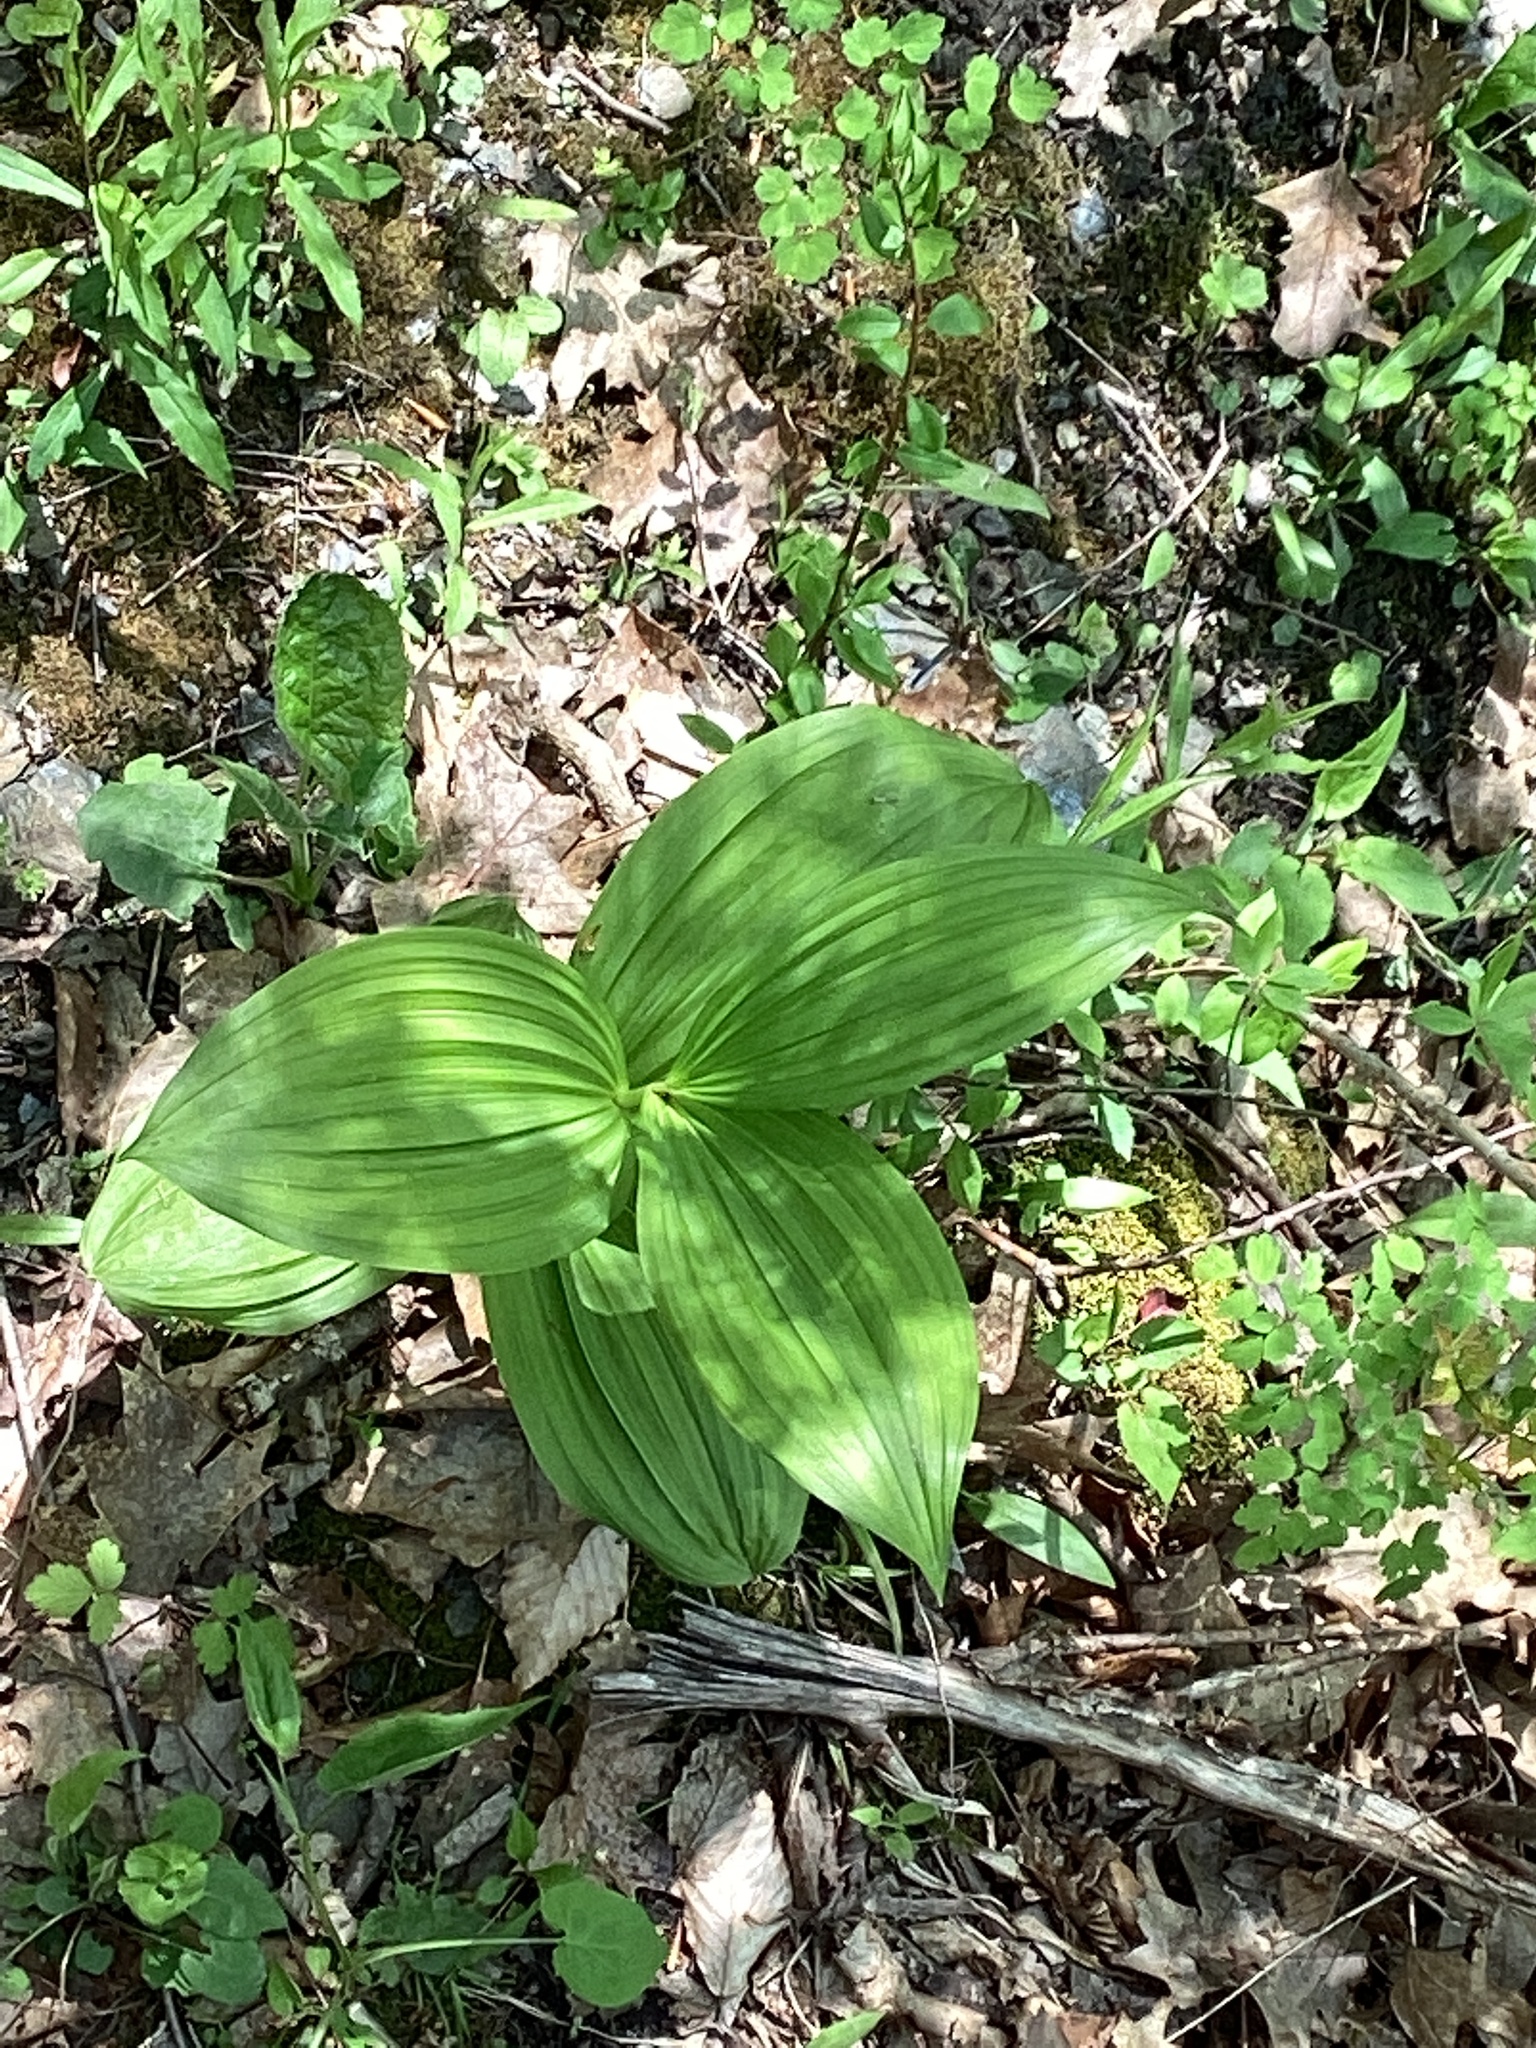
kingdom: Plantae
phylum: Tracheophyta
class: Liliopsida
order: Liliales
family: Melanthiaceae
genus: Veratrum
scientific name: Veratrum viride
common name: American false hellebore
